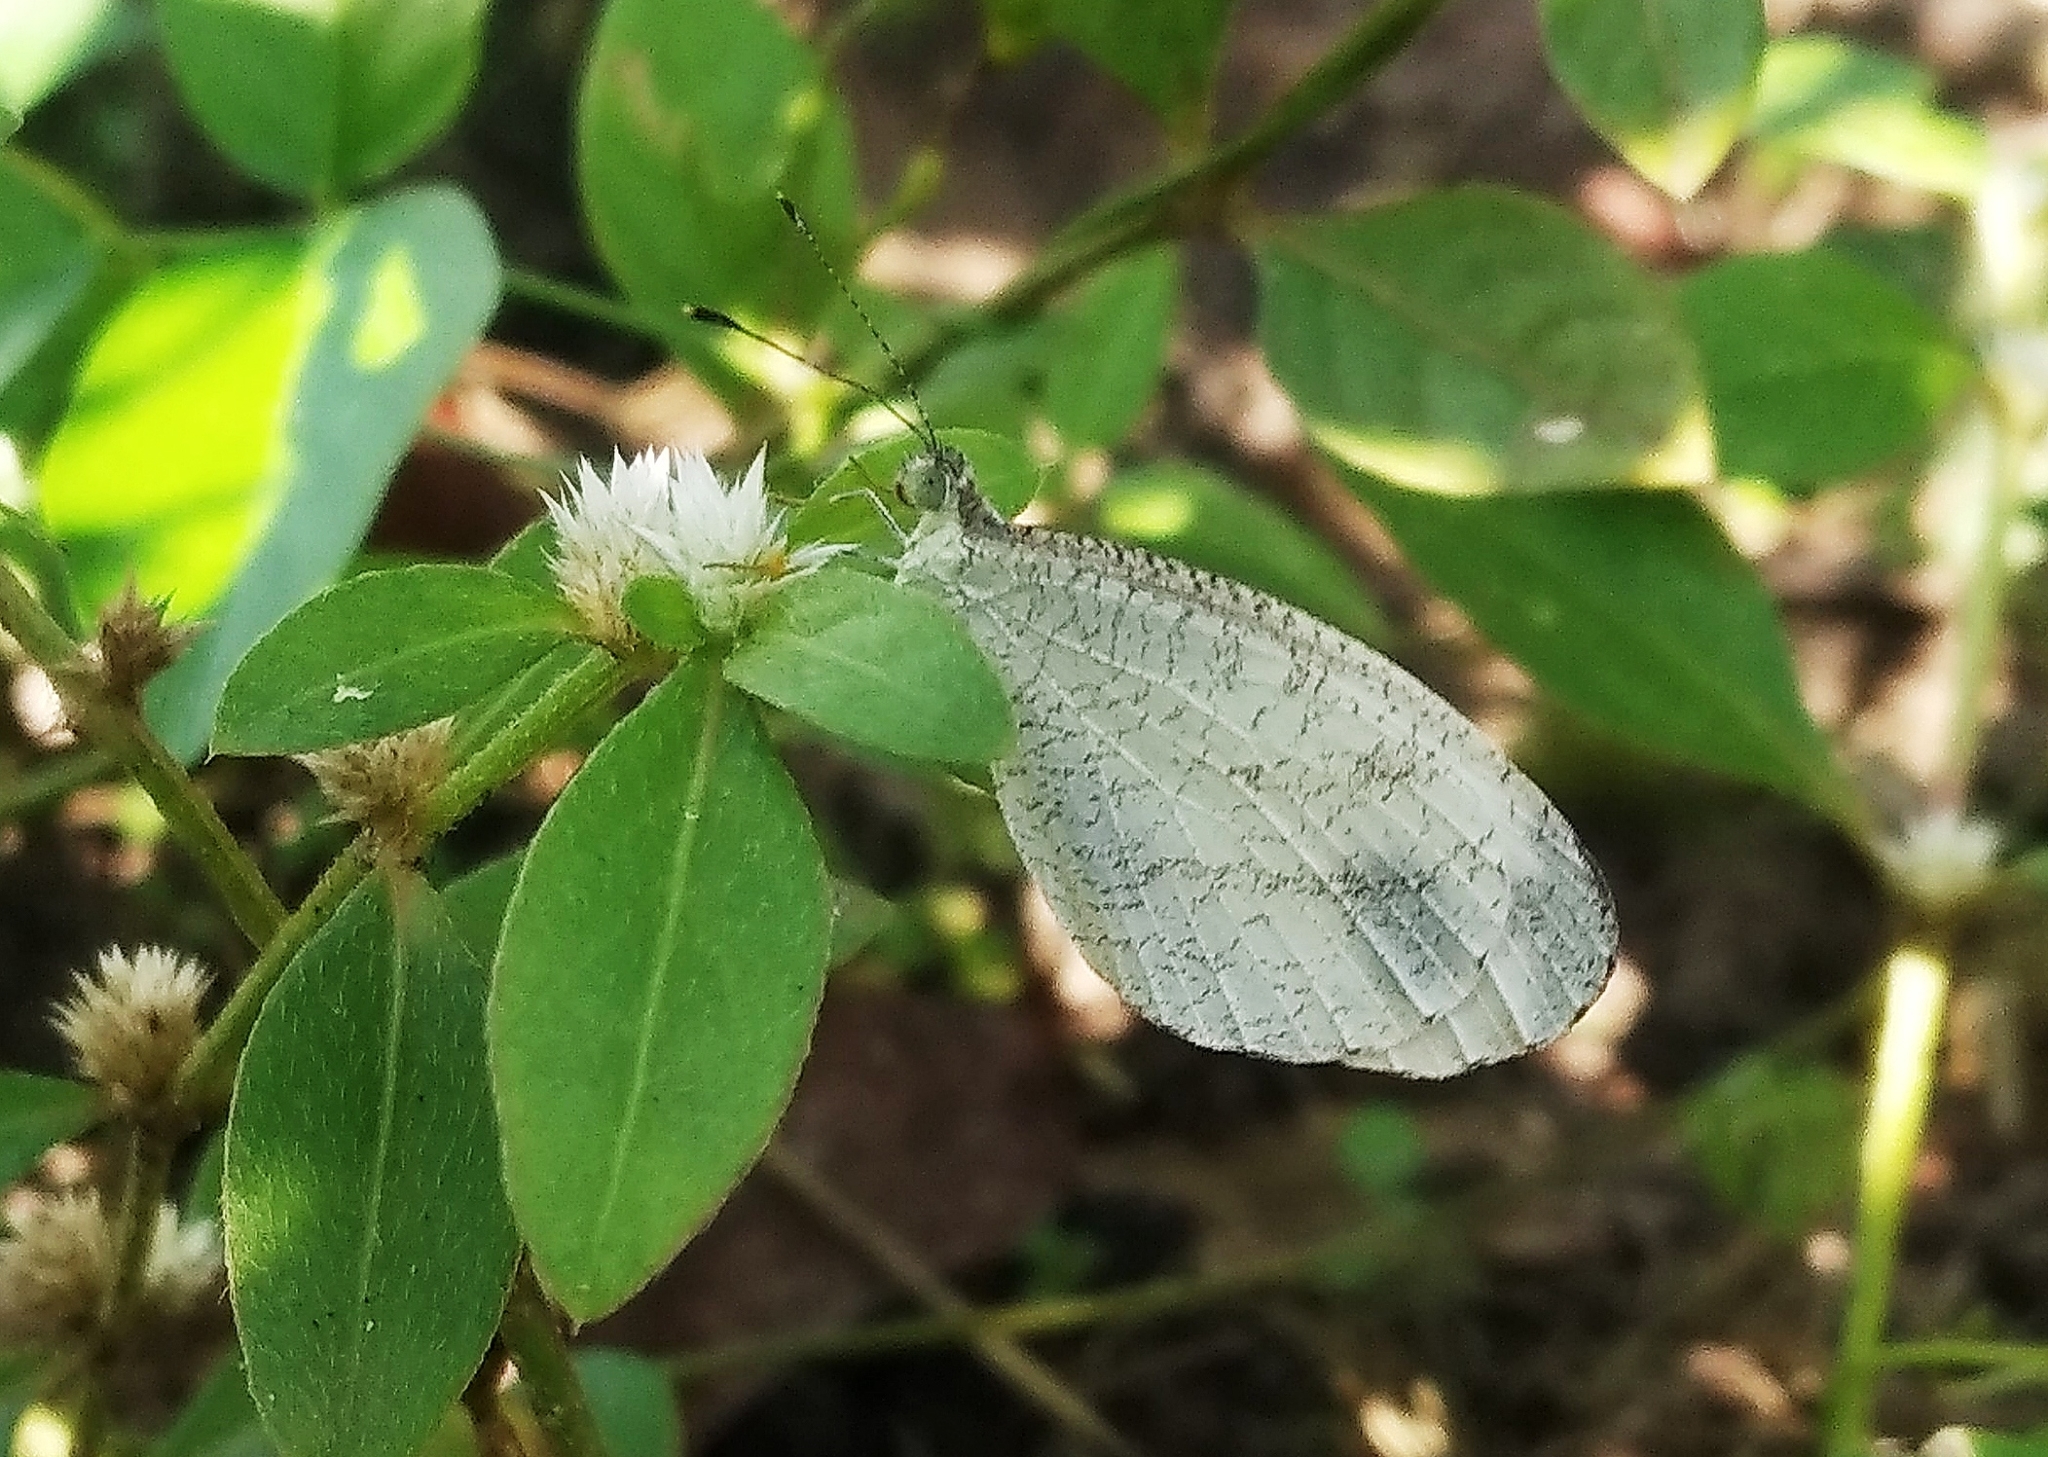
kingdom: Animalia
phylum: Arthropoda
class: Insecta
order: Lepidoptera
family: Pieridae
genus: Leptosia
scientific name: Leptosia nina
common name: Psyche
